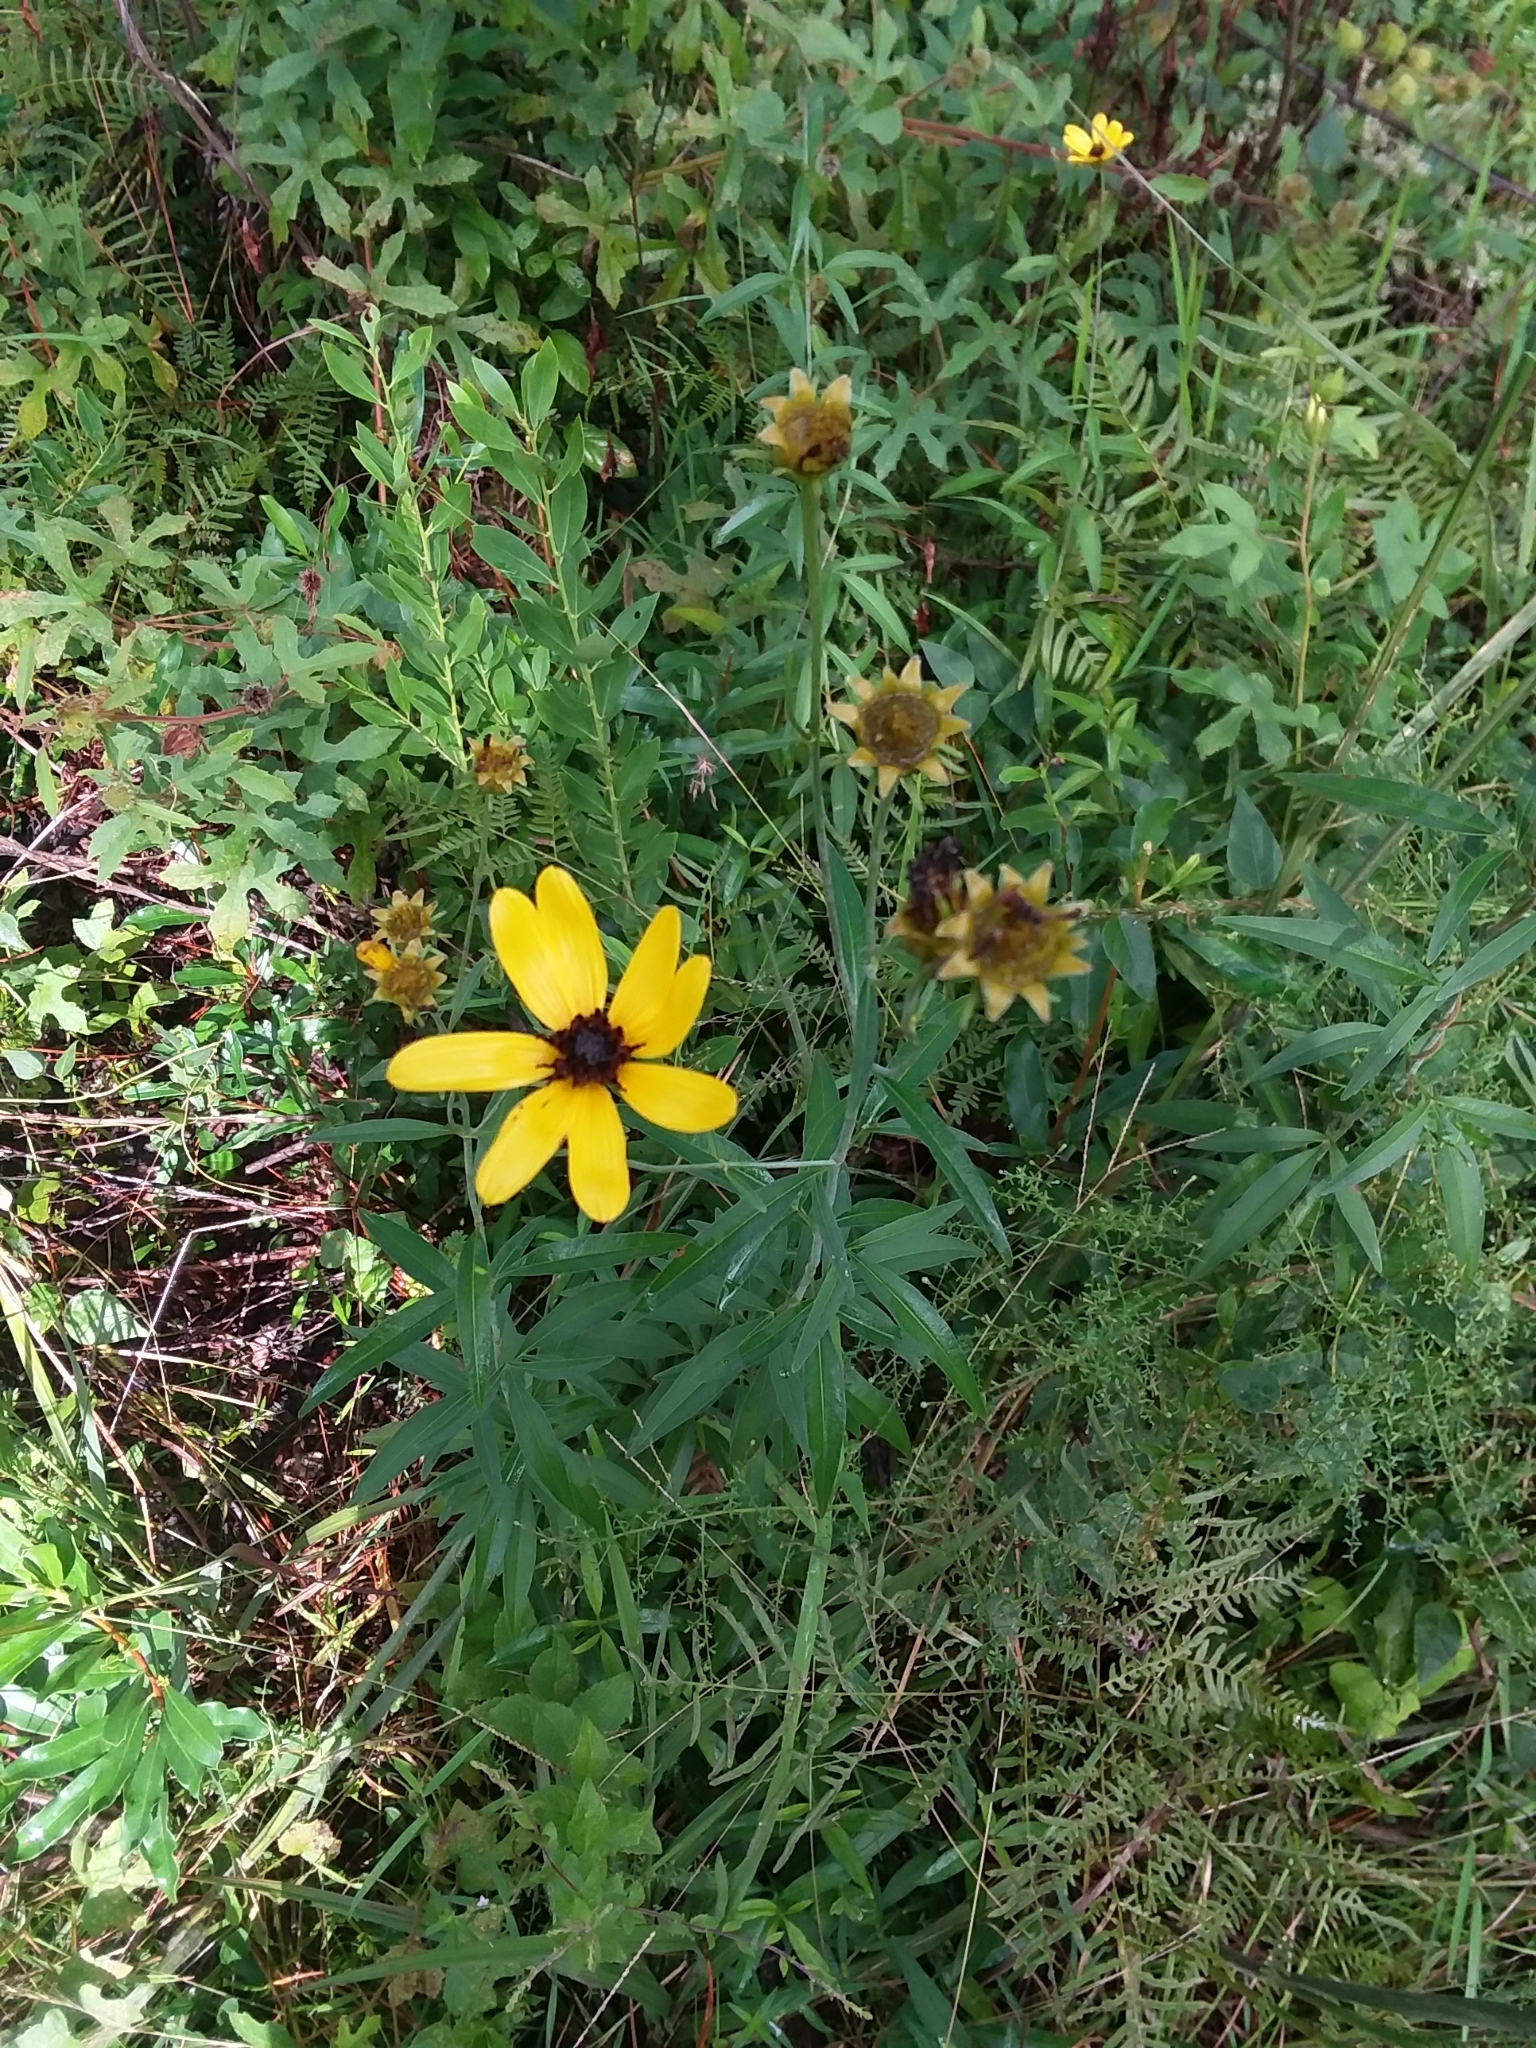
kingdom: Plantae
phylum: Tracheophyta
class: Magnoliopsida
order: Asterales
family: Asteraceae
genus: Coreopsis
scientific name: Coreopsis tripteris
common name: Tall coreopsis
